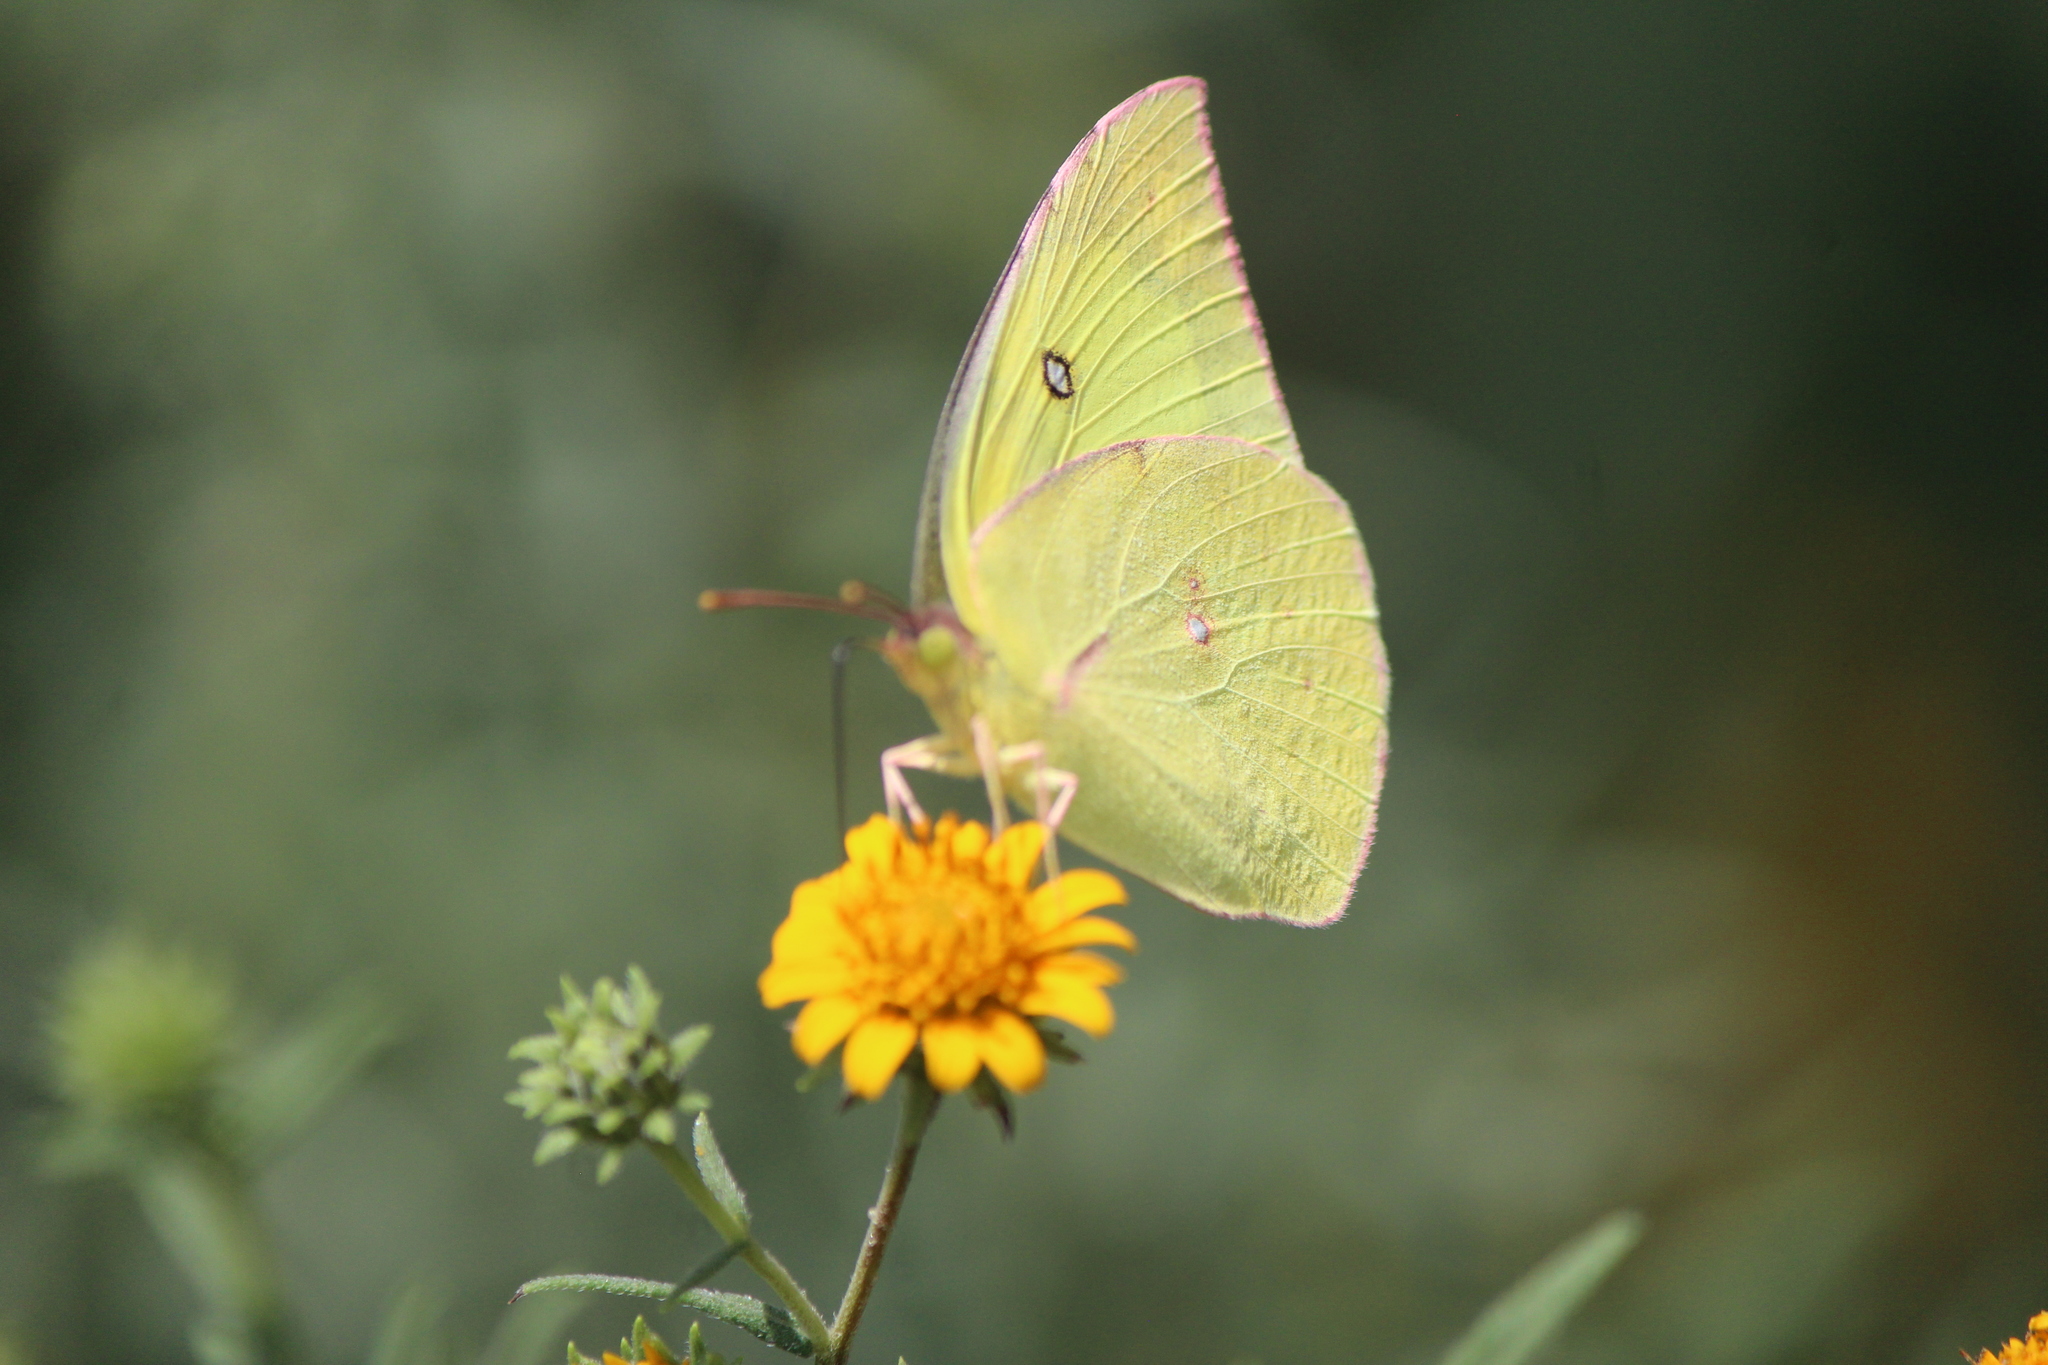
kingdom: Animalia
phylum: Arthropoda
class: Insecta
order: Lepidoptera
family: Pieridae
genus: Zerene
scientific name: Zerene cesonia
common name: Southern dogface
